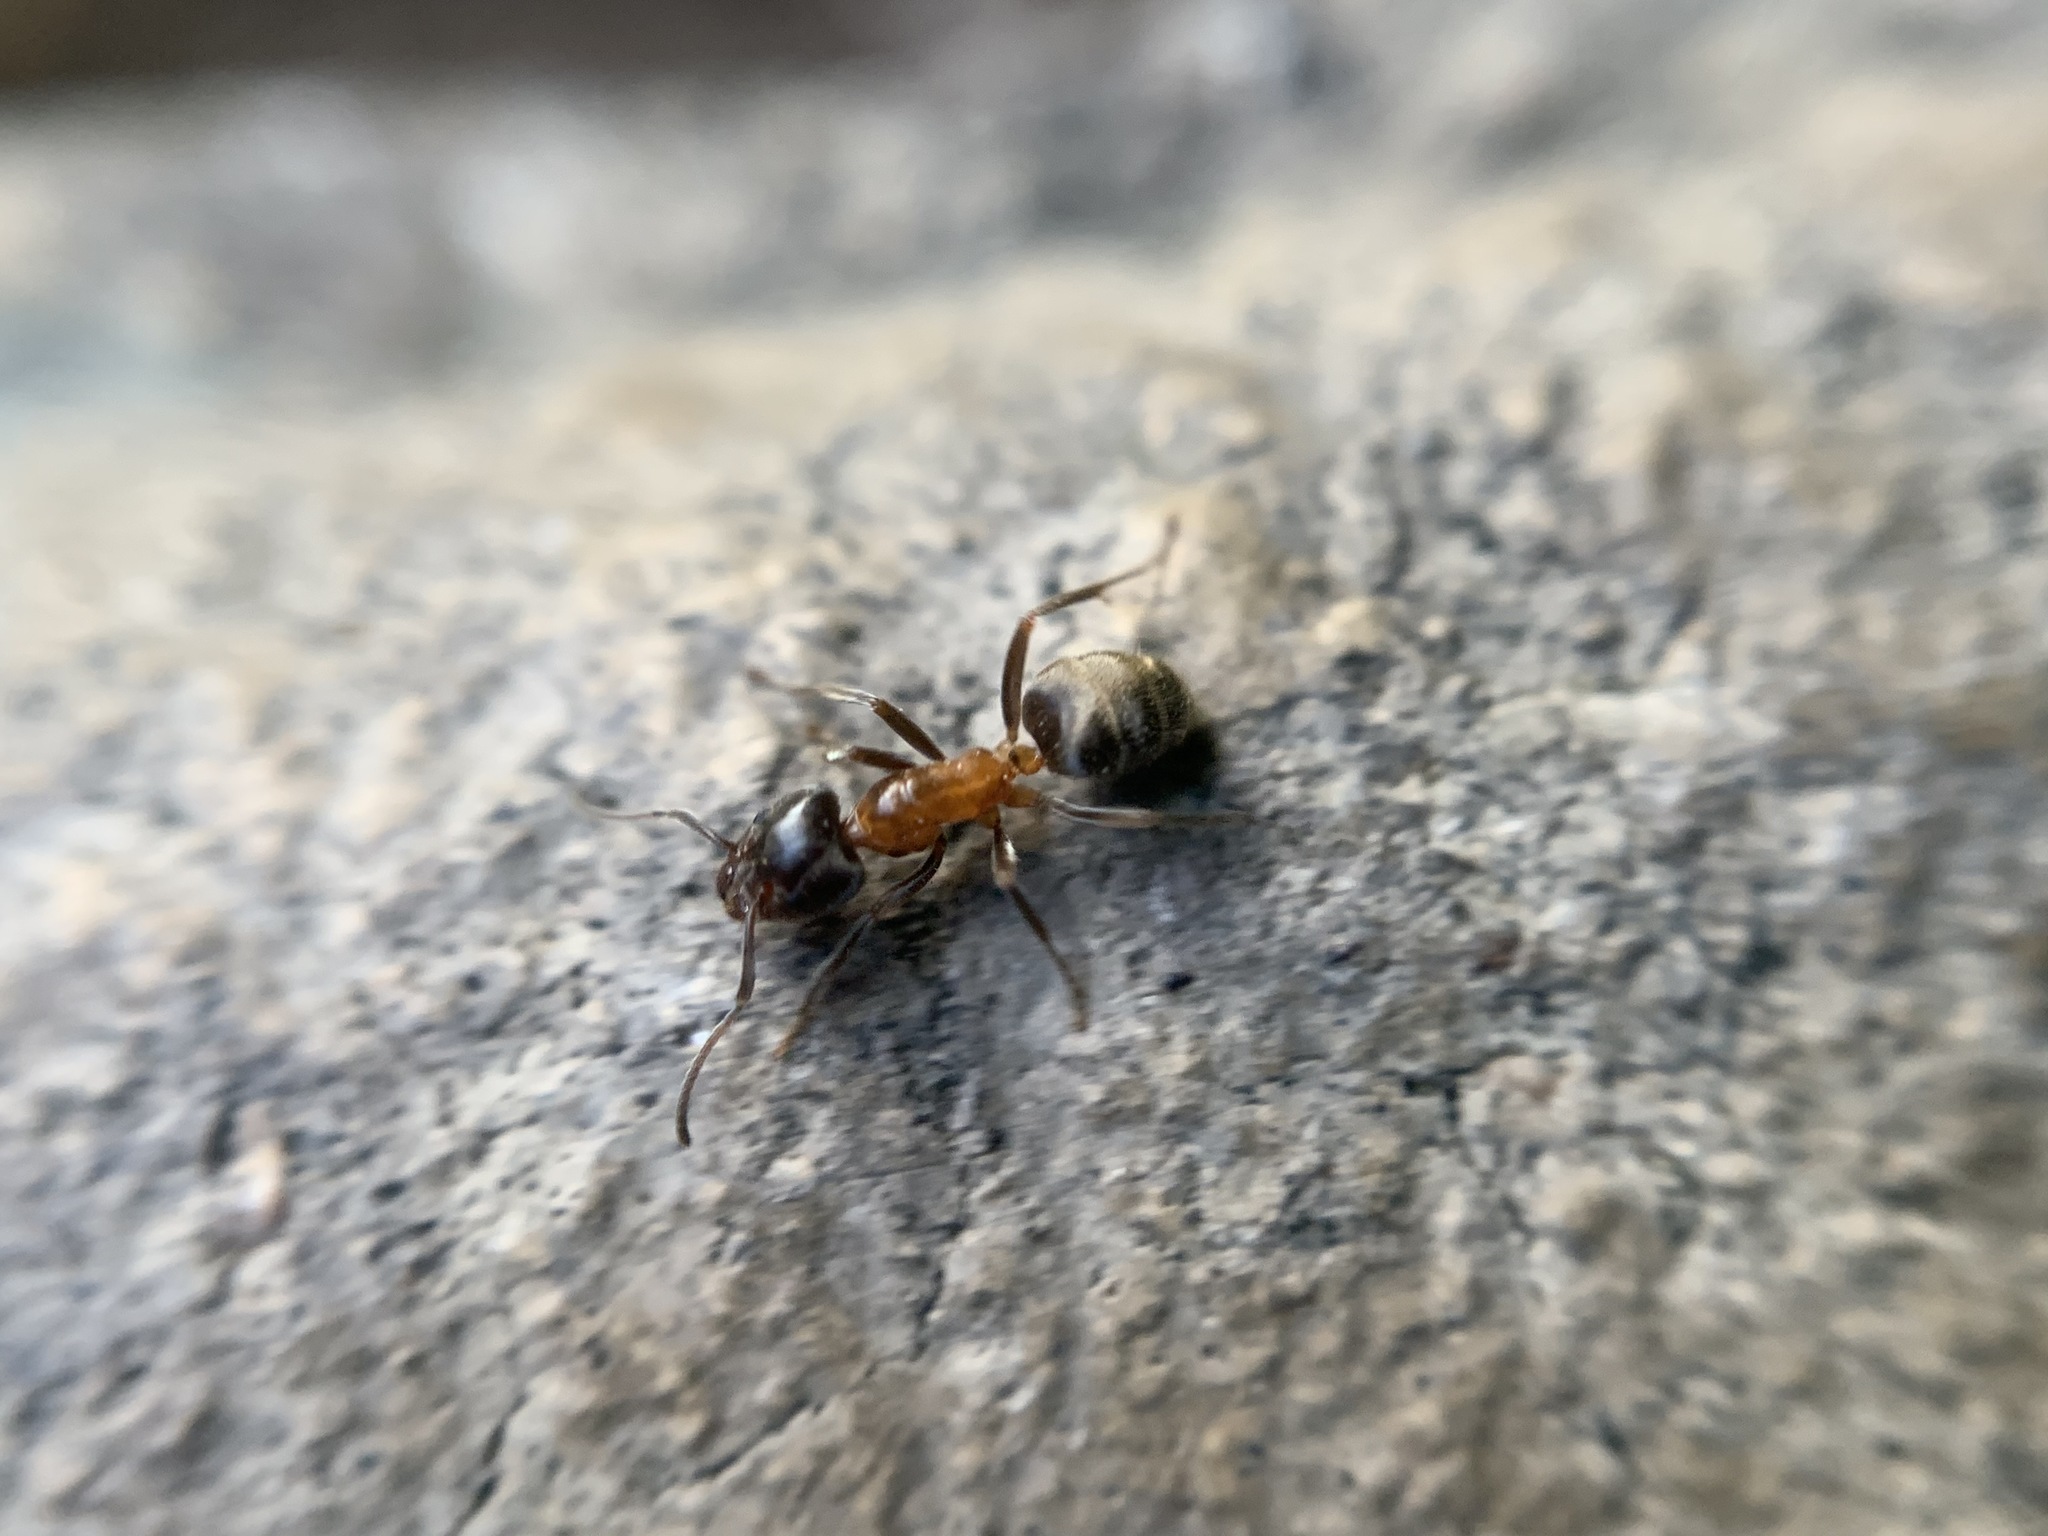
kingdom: Animalia
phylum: Arthropoda
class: Insecta
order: Hymenoptera
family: Formicidae
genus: Liometopum
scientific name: Liometopum occidentale
